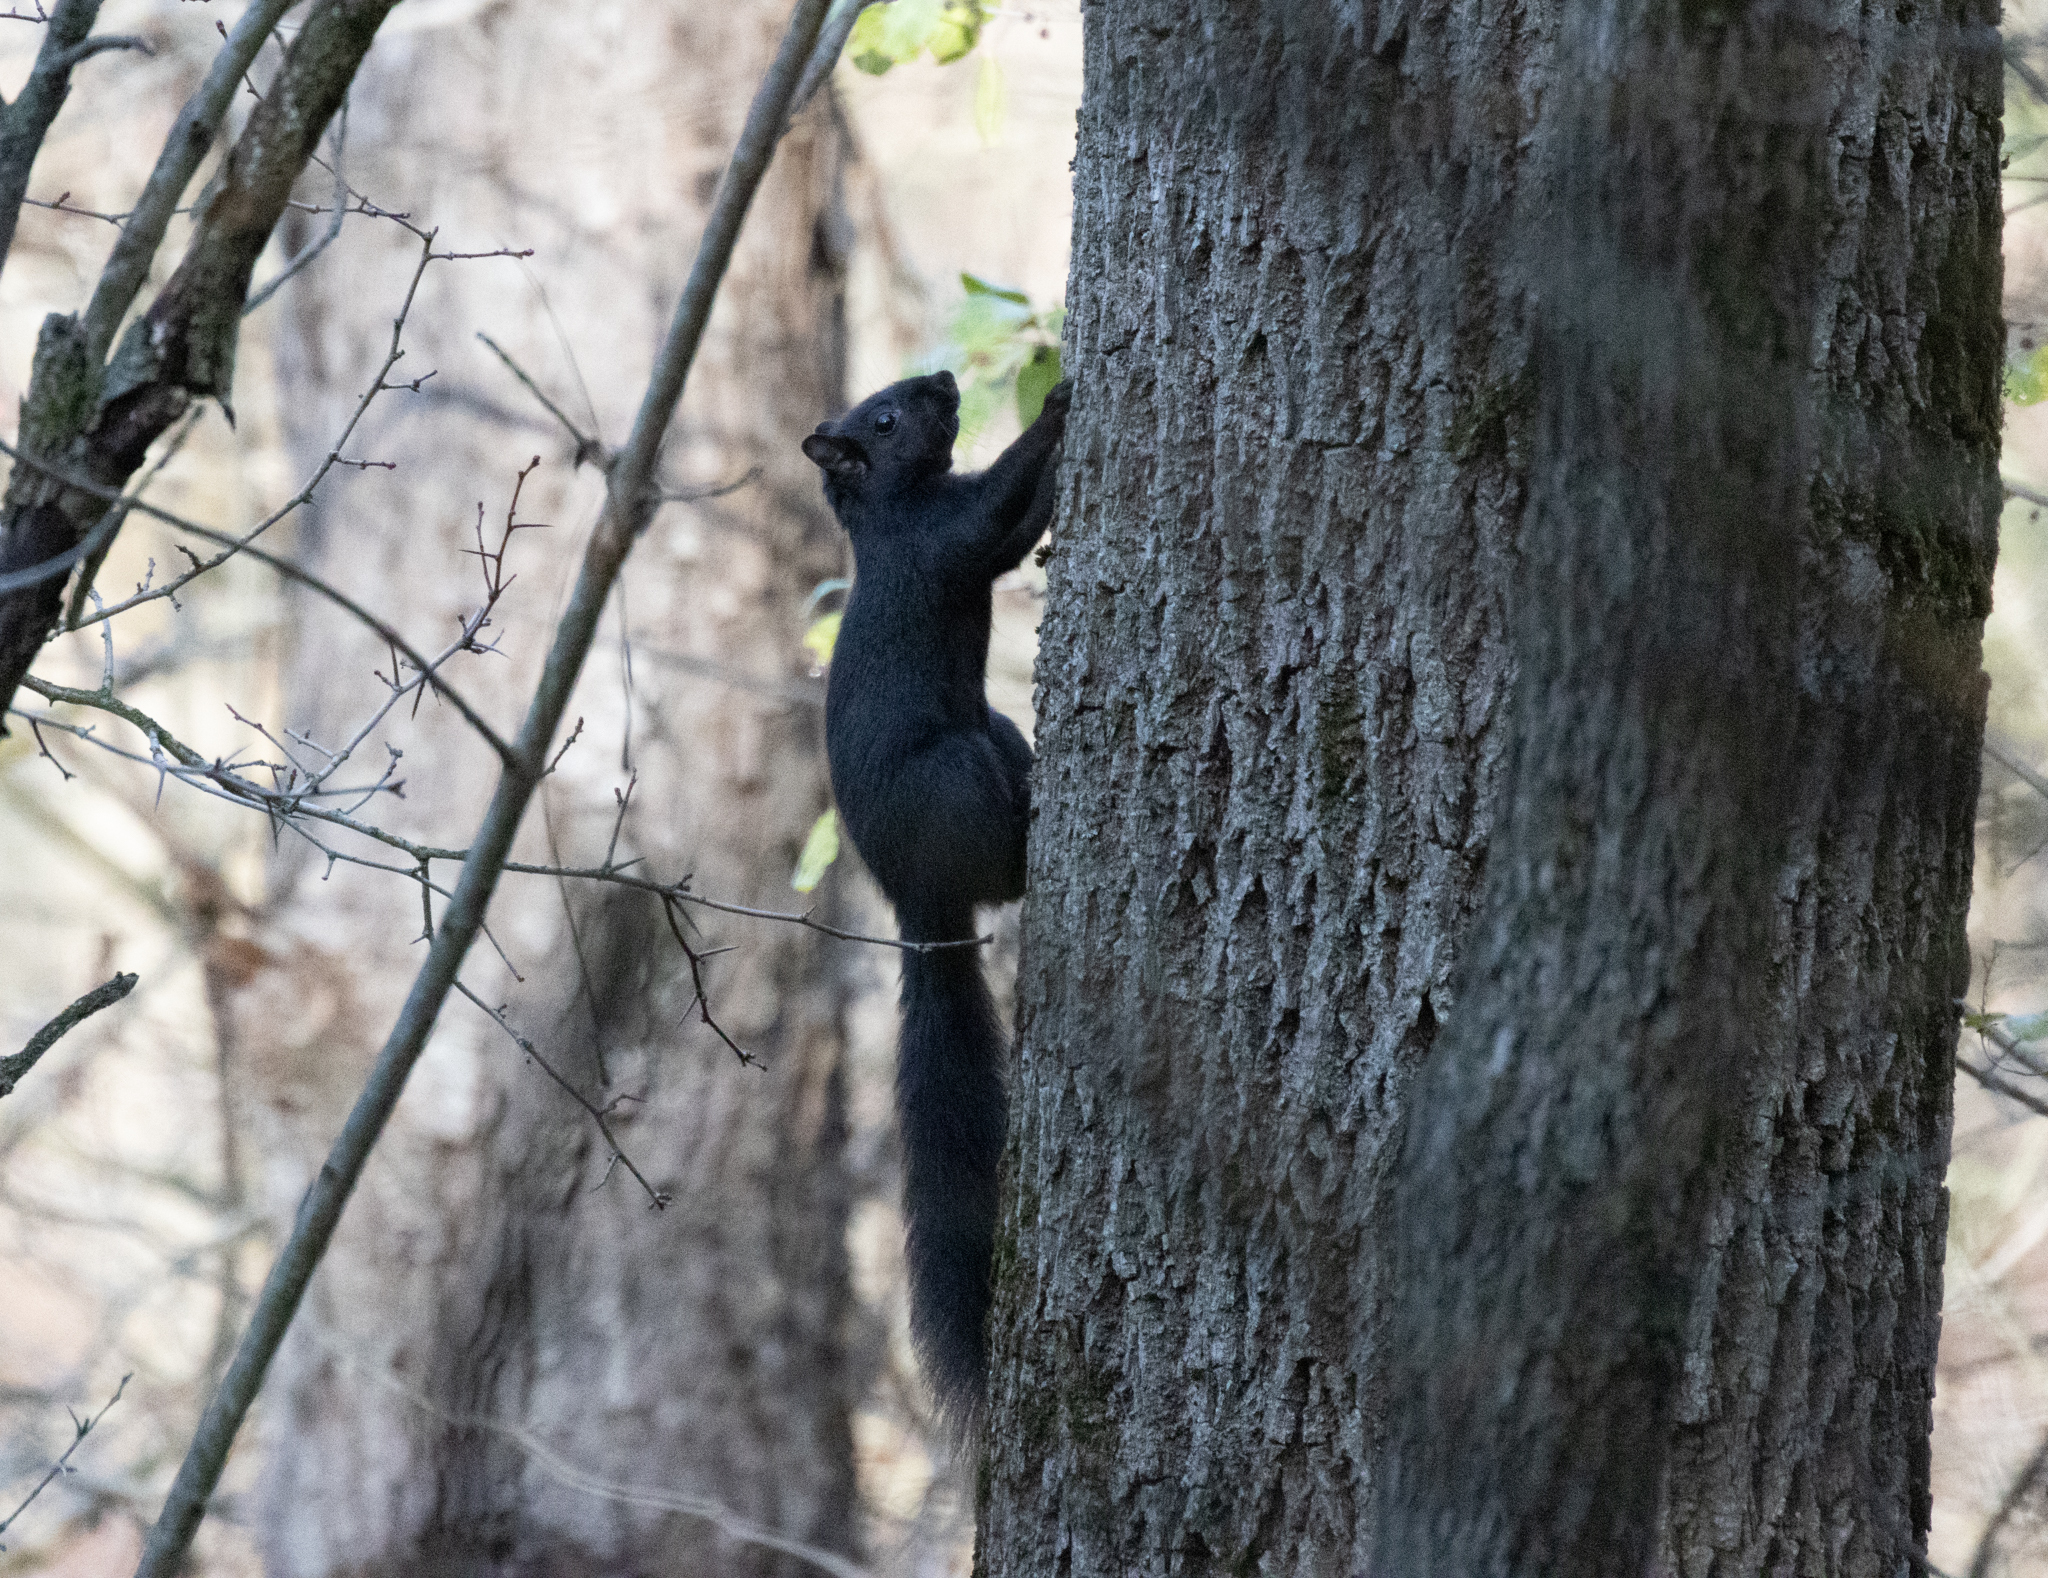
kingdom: Animalia
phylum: Chordata
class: Mammalia
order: Rodentia
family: Sciuridae
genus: Sciurus
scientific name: Sciurus carolinensis
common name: Eastern gray squirrel
